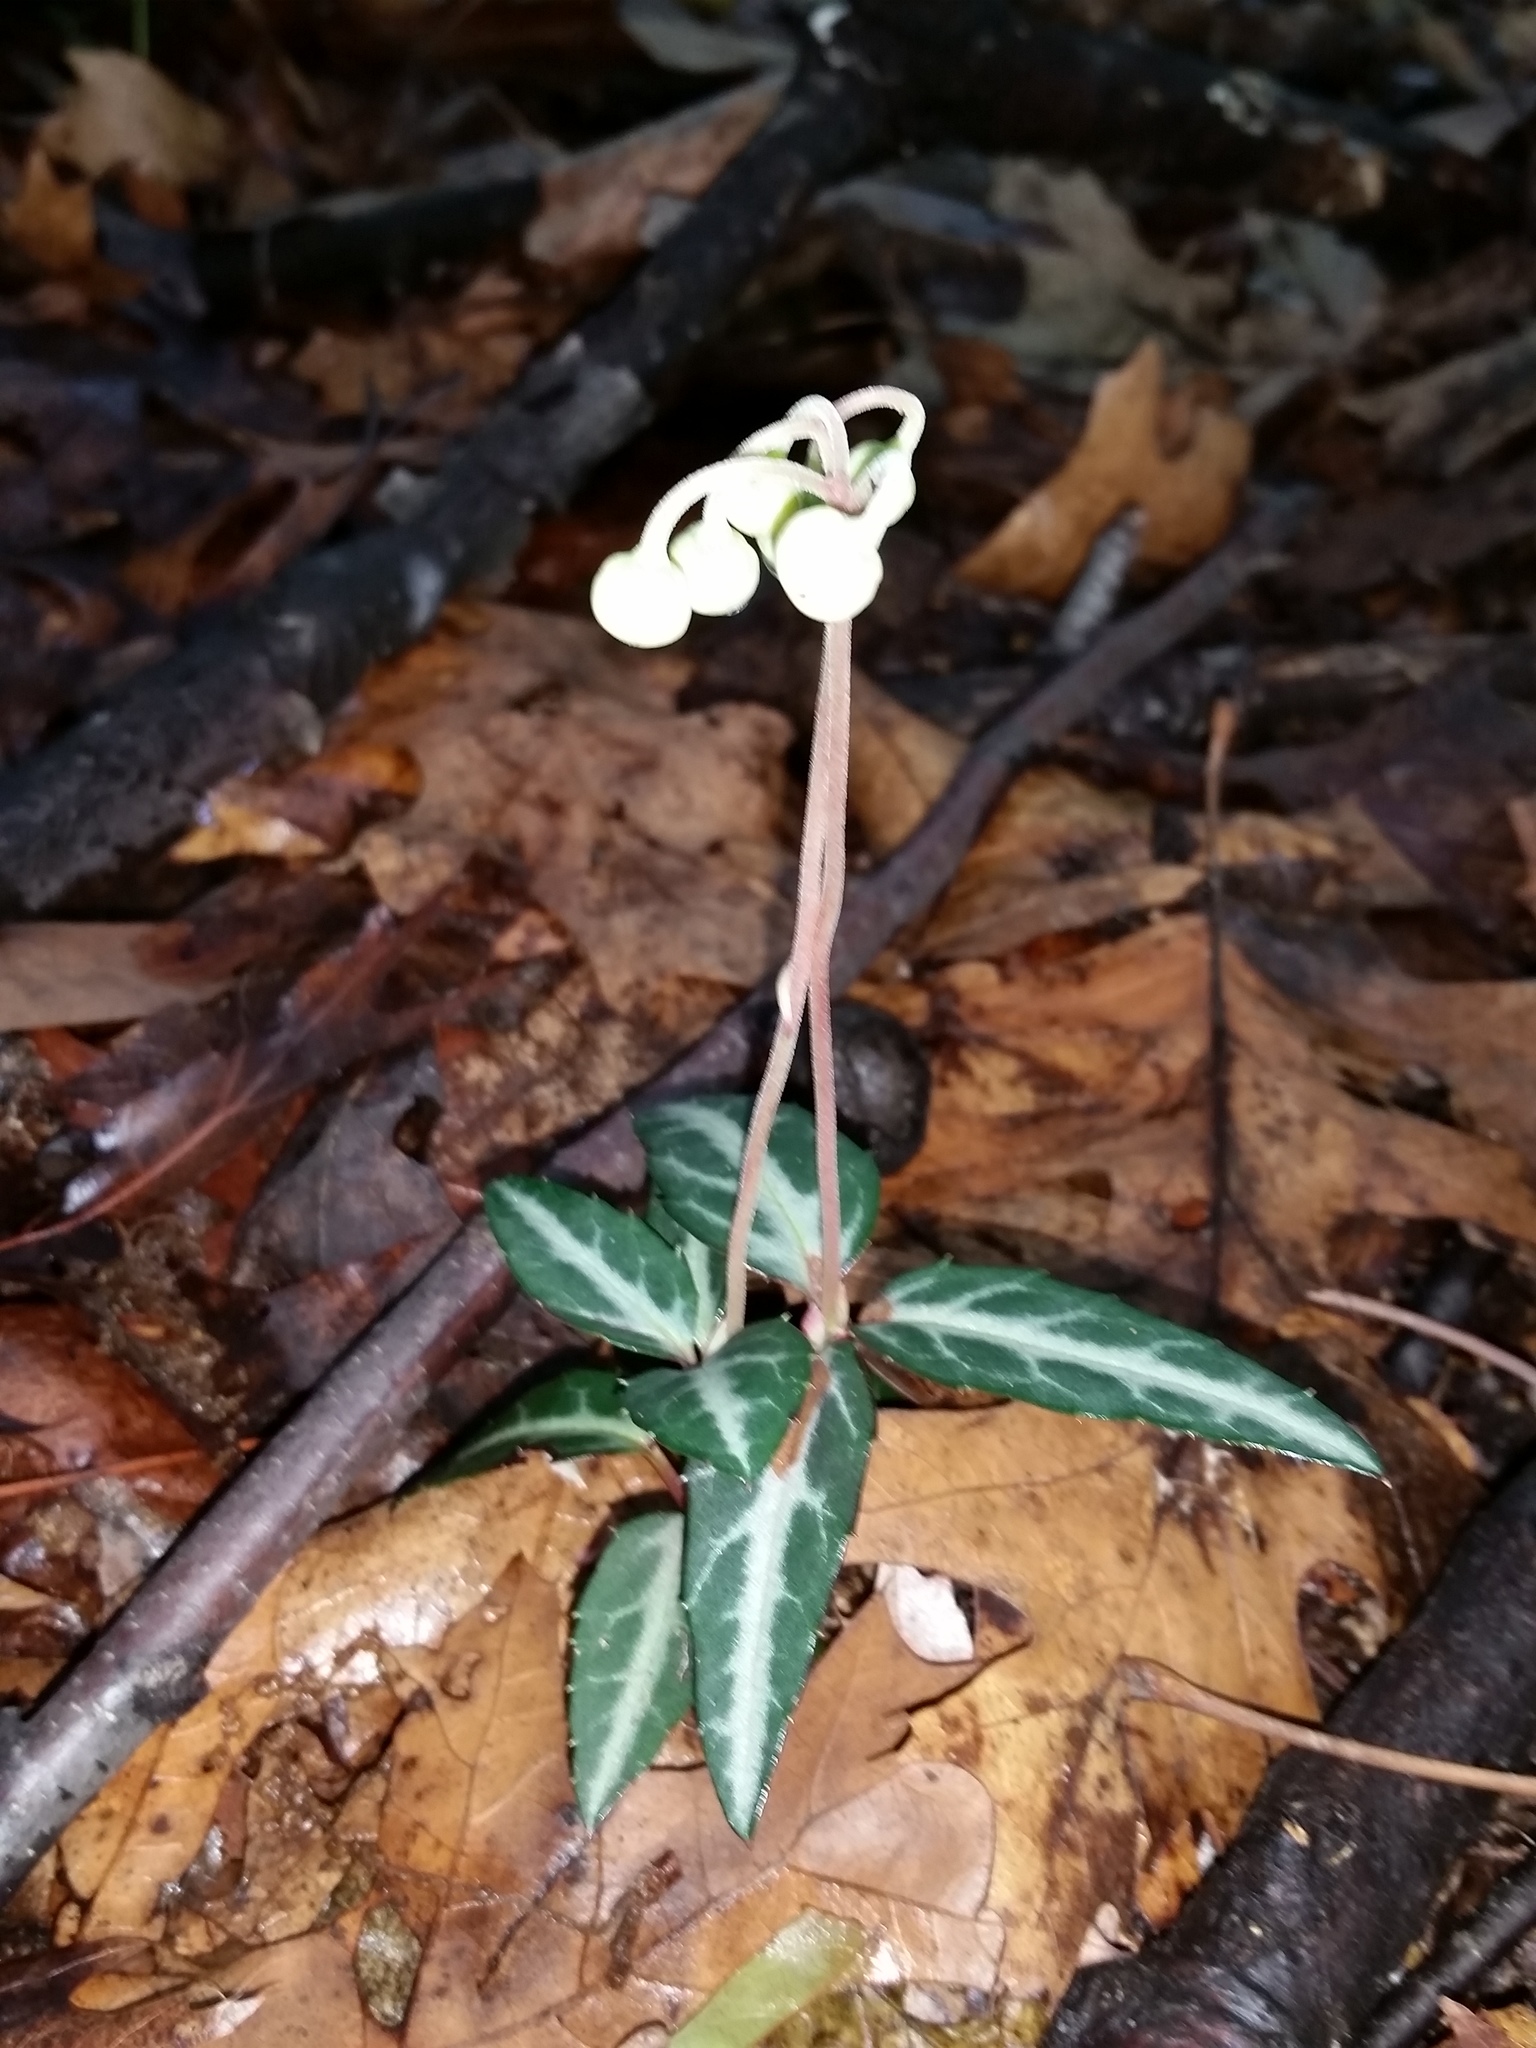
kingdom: Plantae
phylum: Tracheophyta
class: Magnoliopsida
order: Ericales
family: Ericaceae
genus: Chimaphila
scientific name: Chimaphila maculata
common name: Spotted pipsissewa
